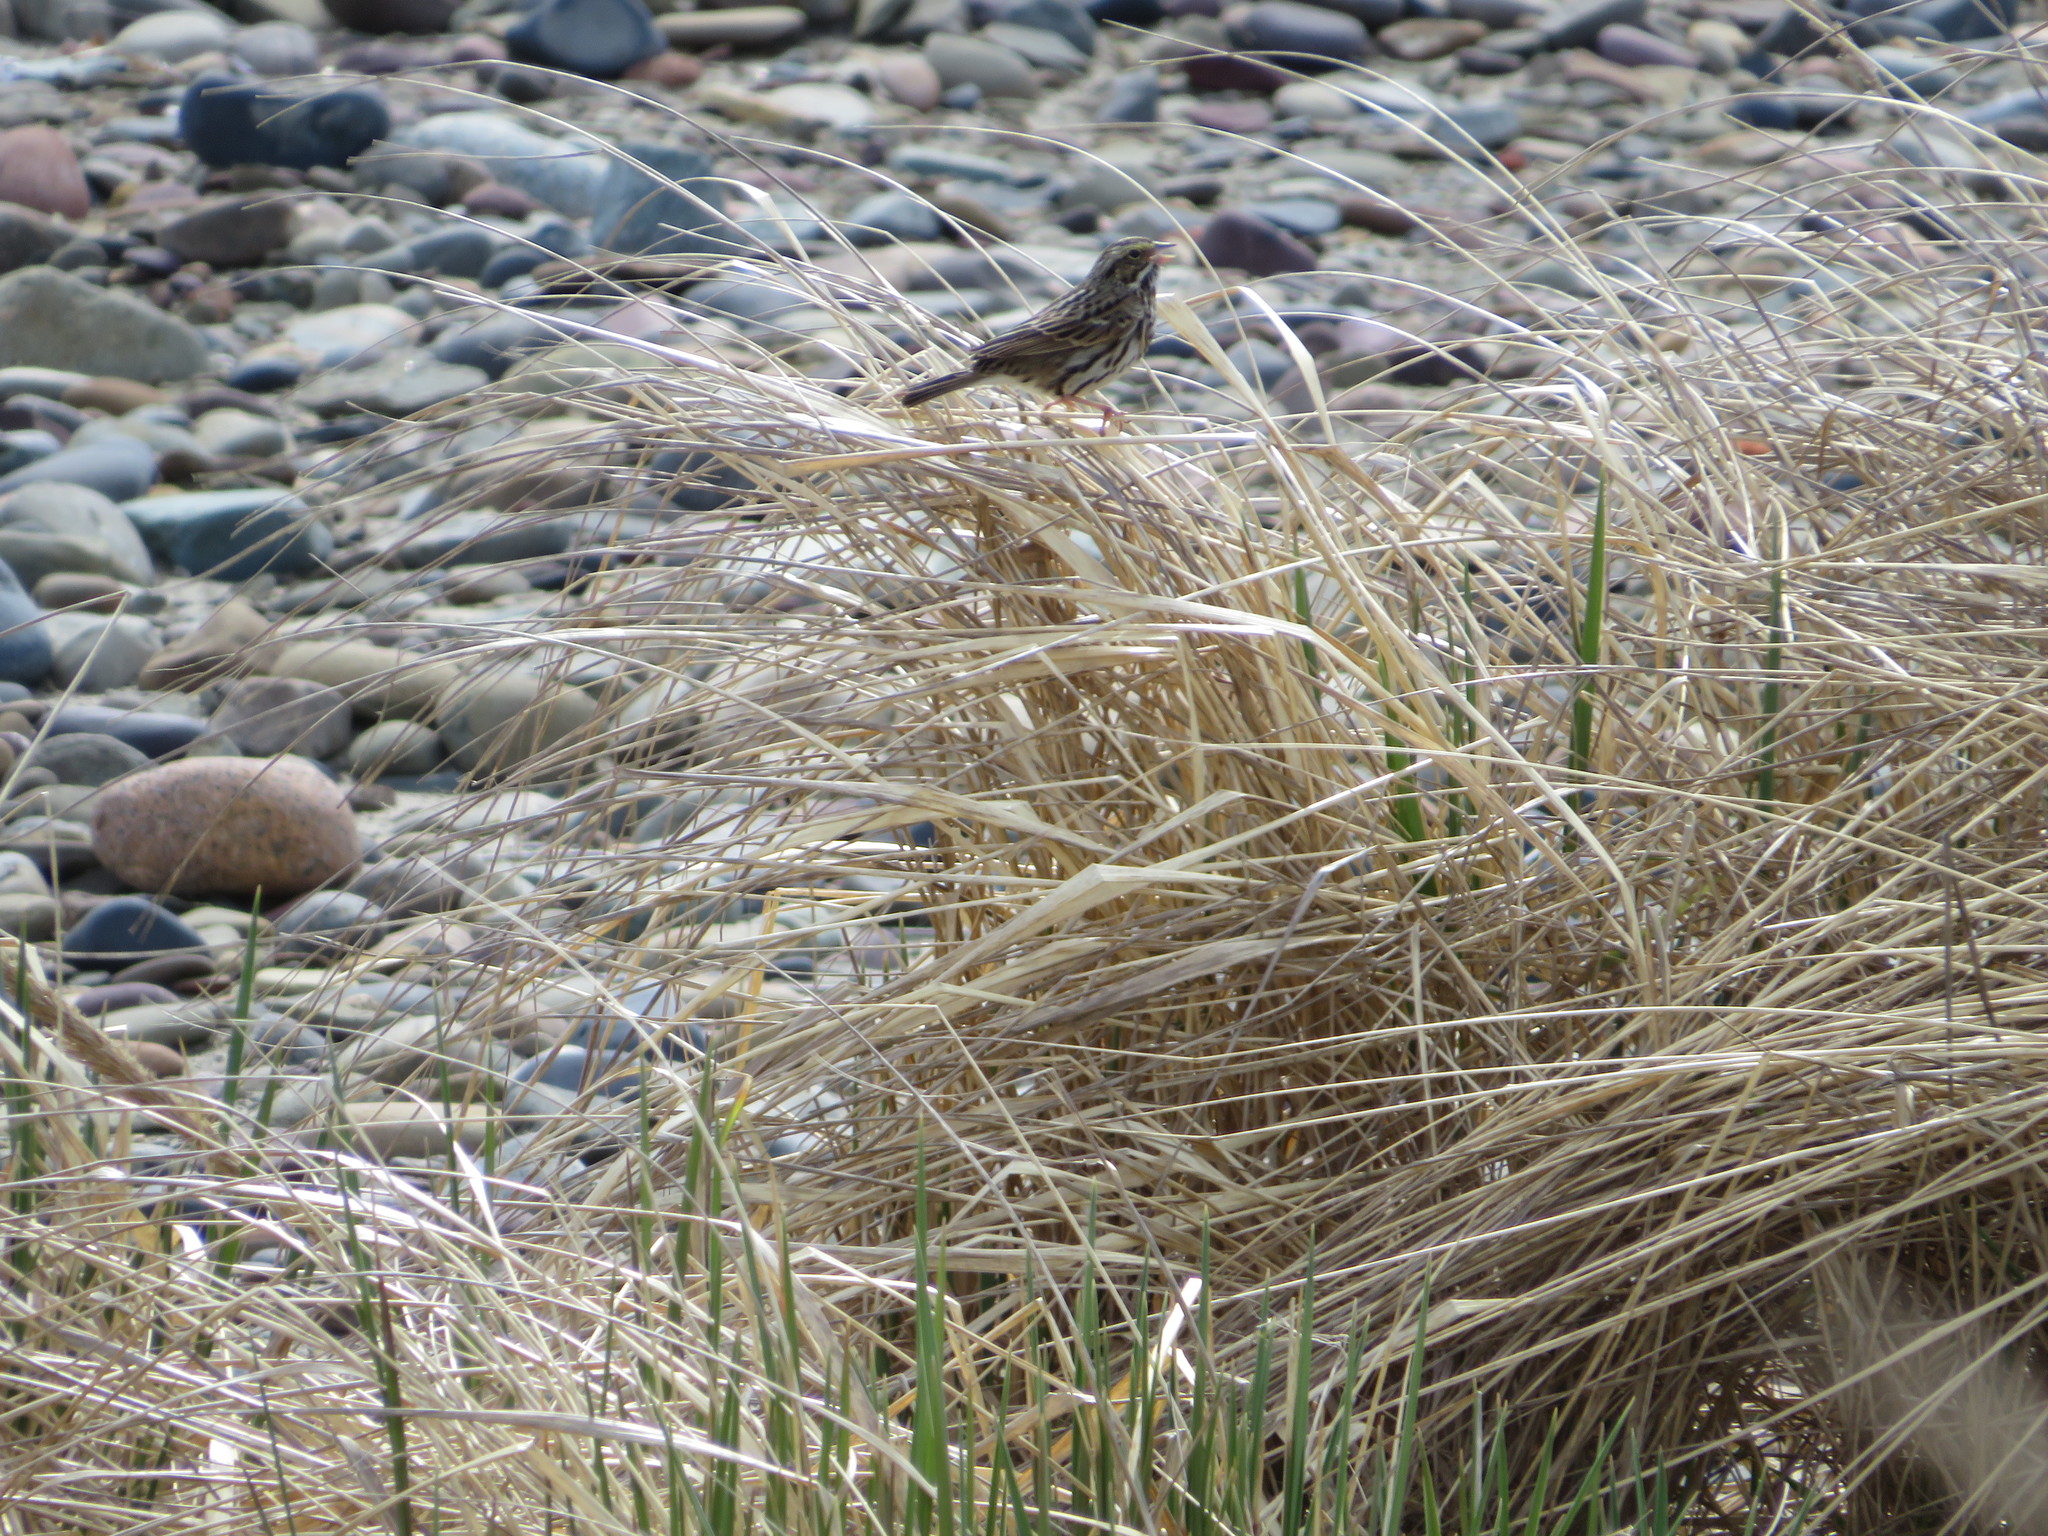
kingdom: Animalia
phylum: Chordata
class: Aves
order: Passeriformes
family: Passerellidae
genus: Passerculus
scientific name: Passerculus sandwichensis
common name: Savannah sparrow
